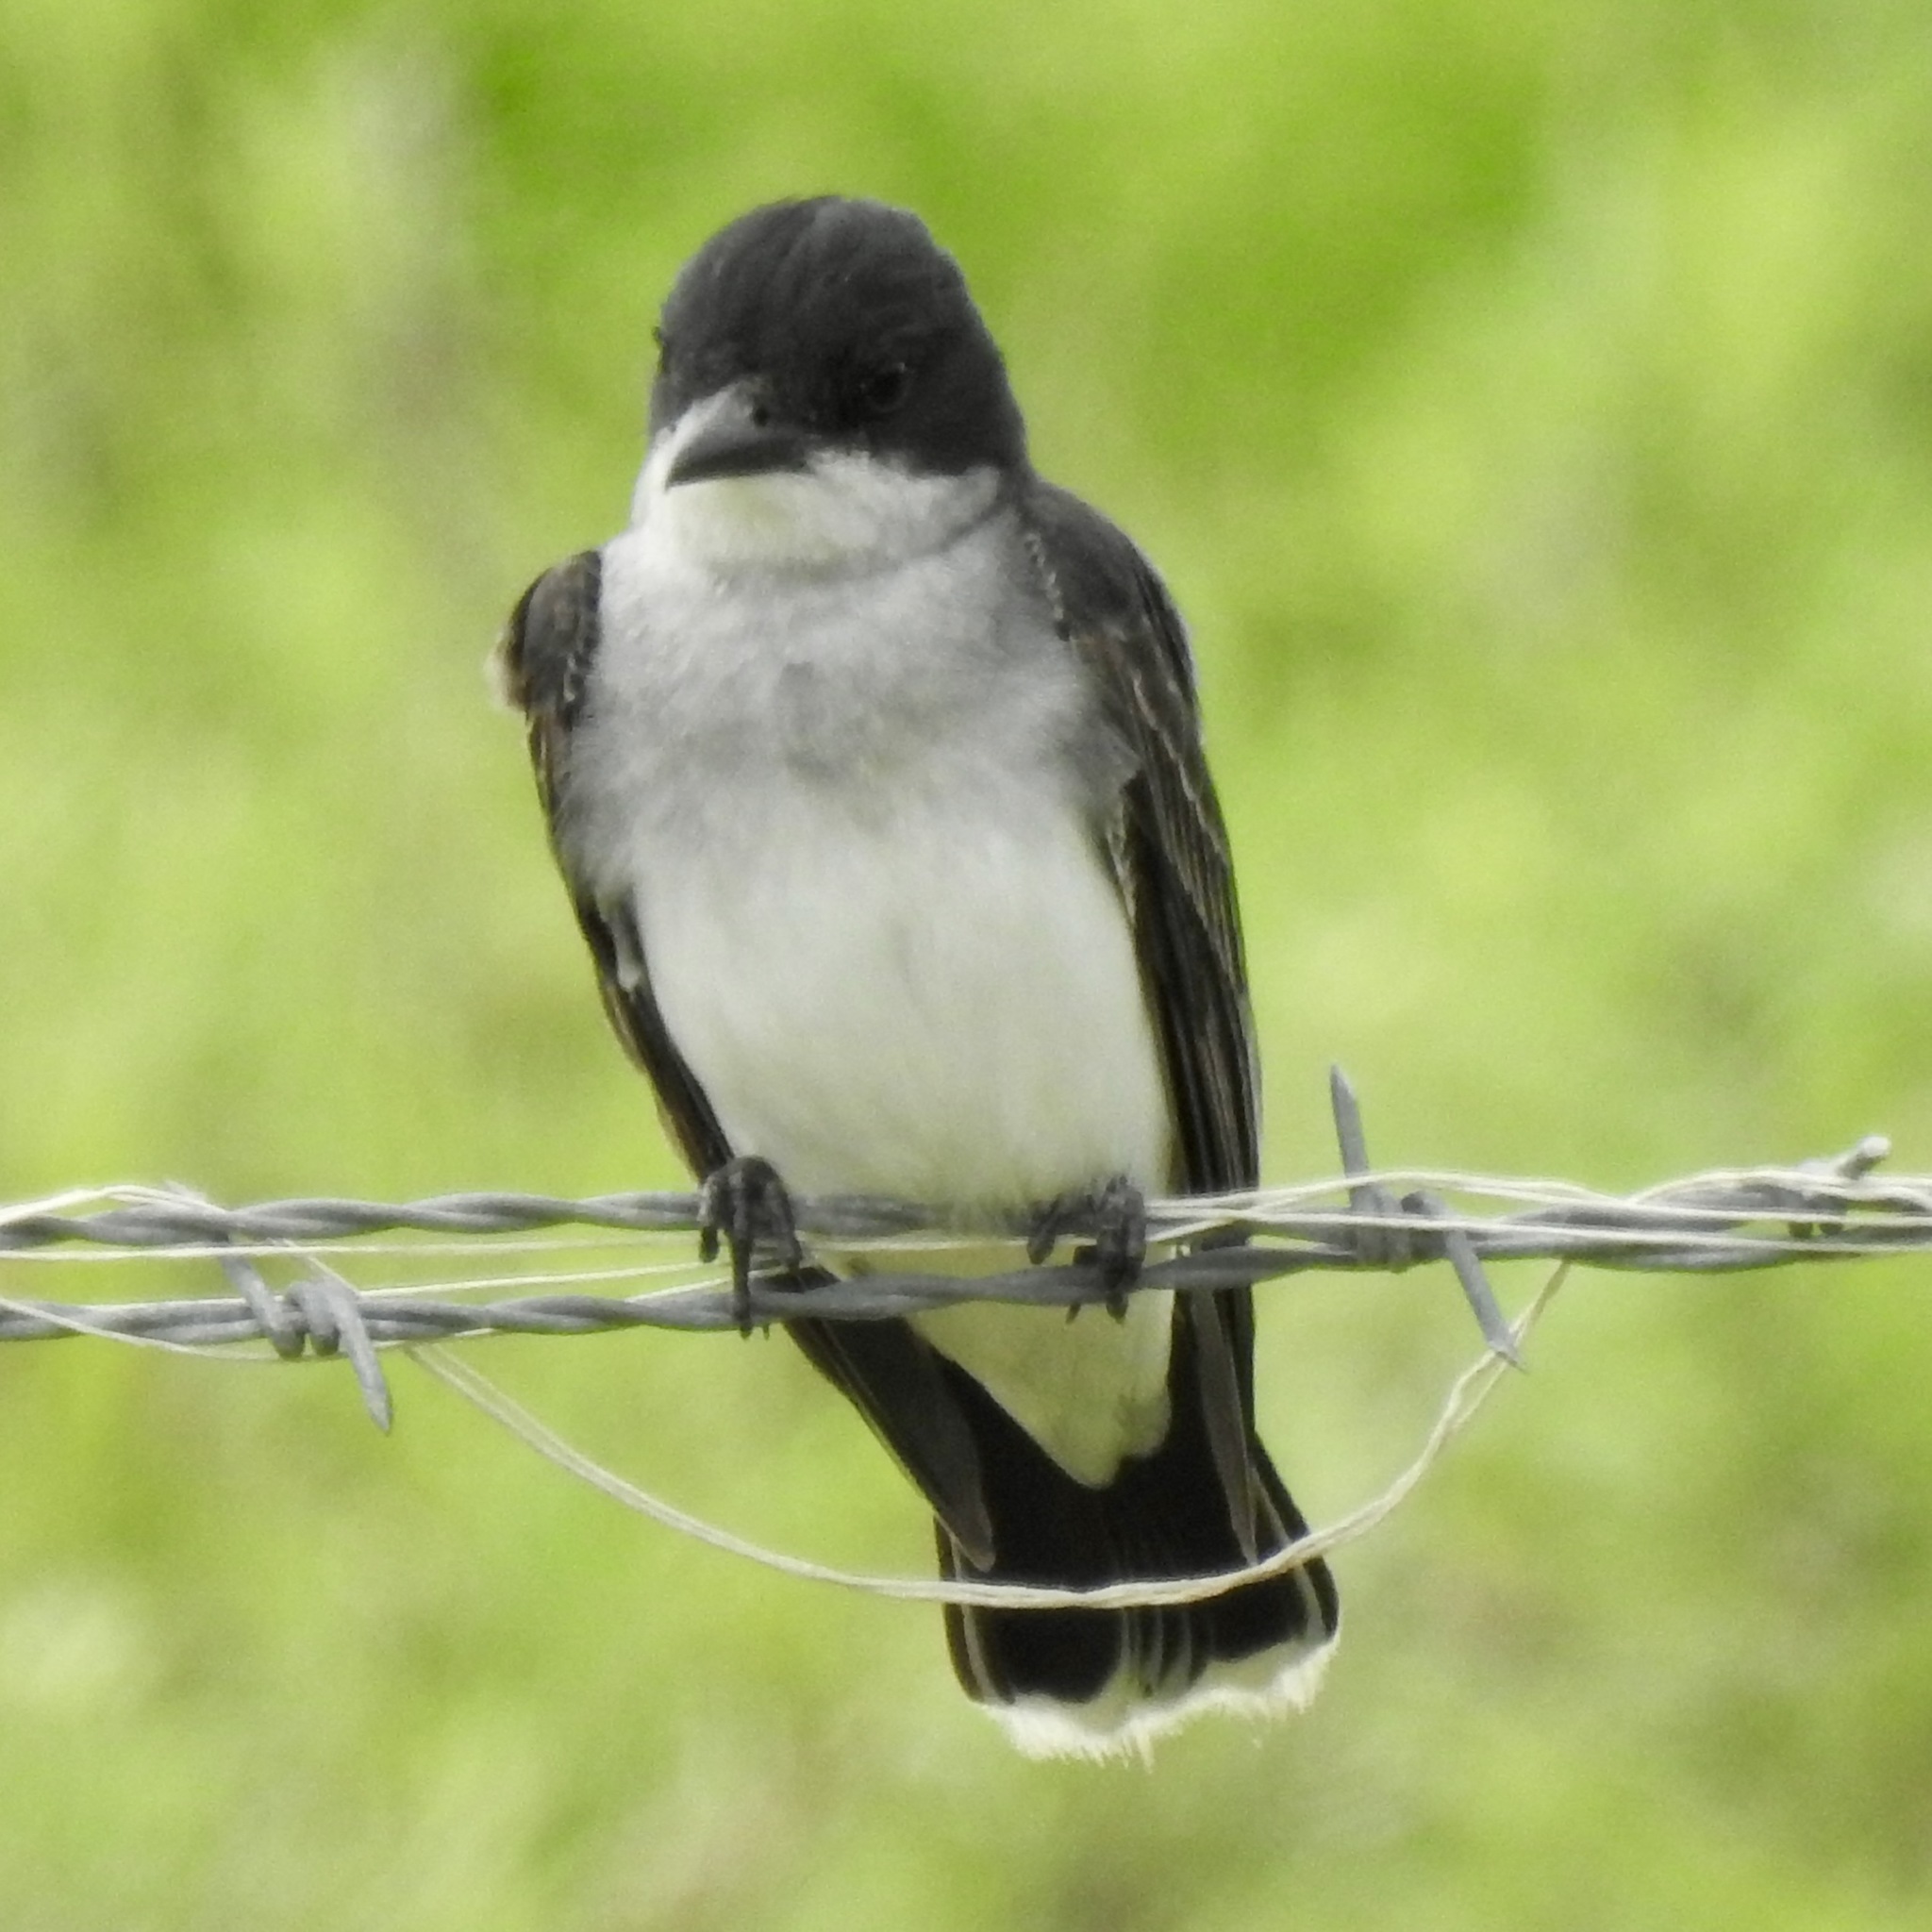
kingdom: Animalia
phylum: Chordata
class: Aves
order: Passeriformes
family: Tyrannidae
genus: Tyrannus
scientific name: Tyrannus tyrannus
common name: Eastern kingbird
